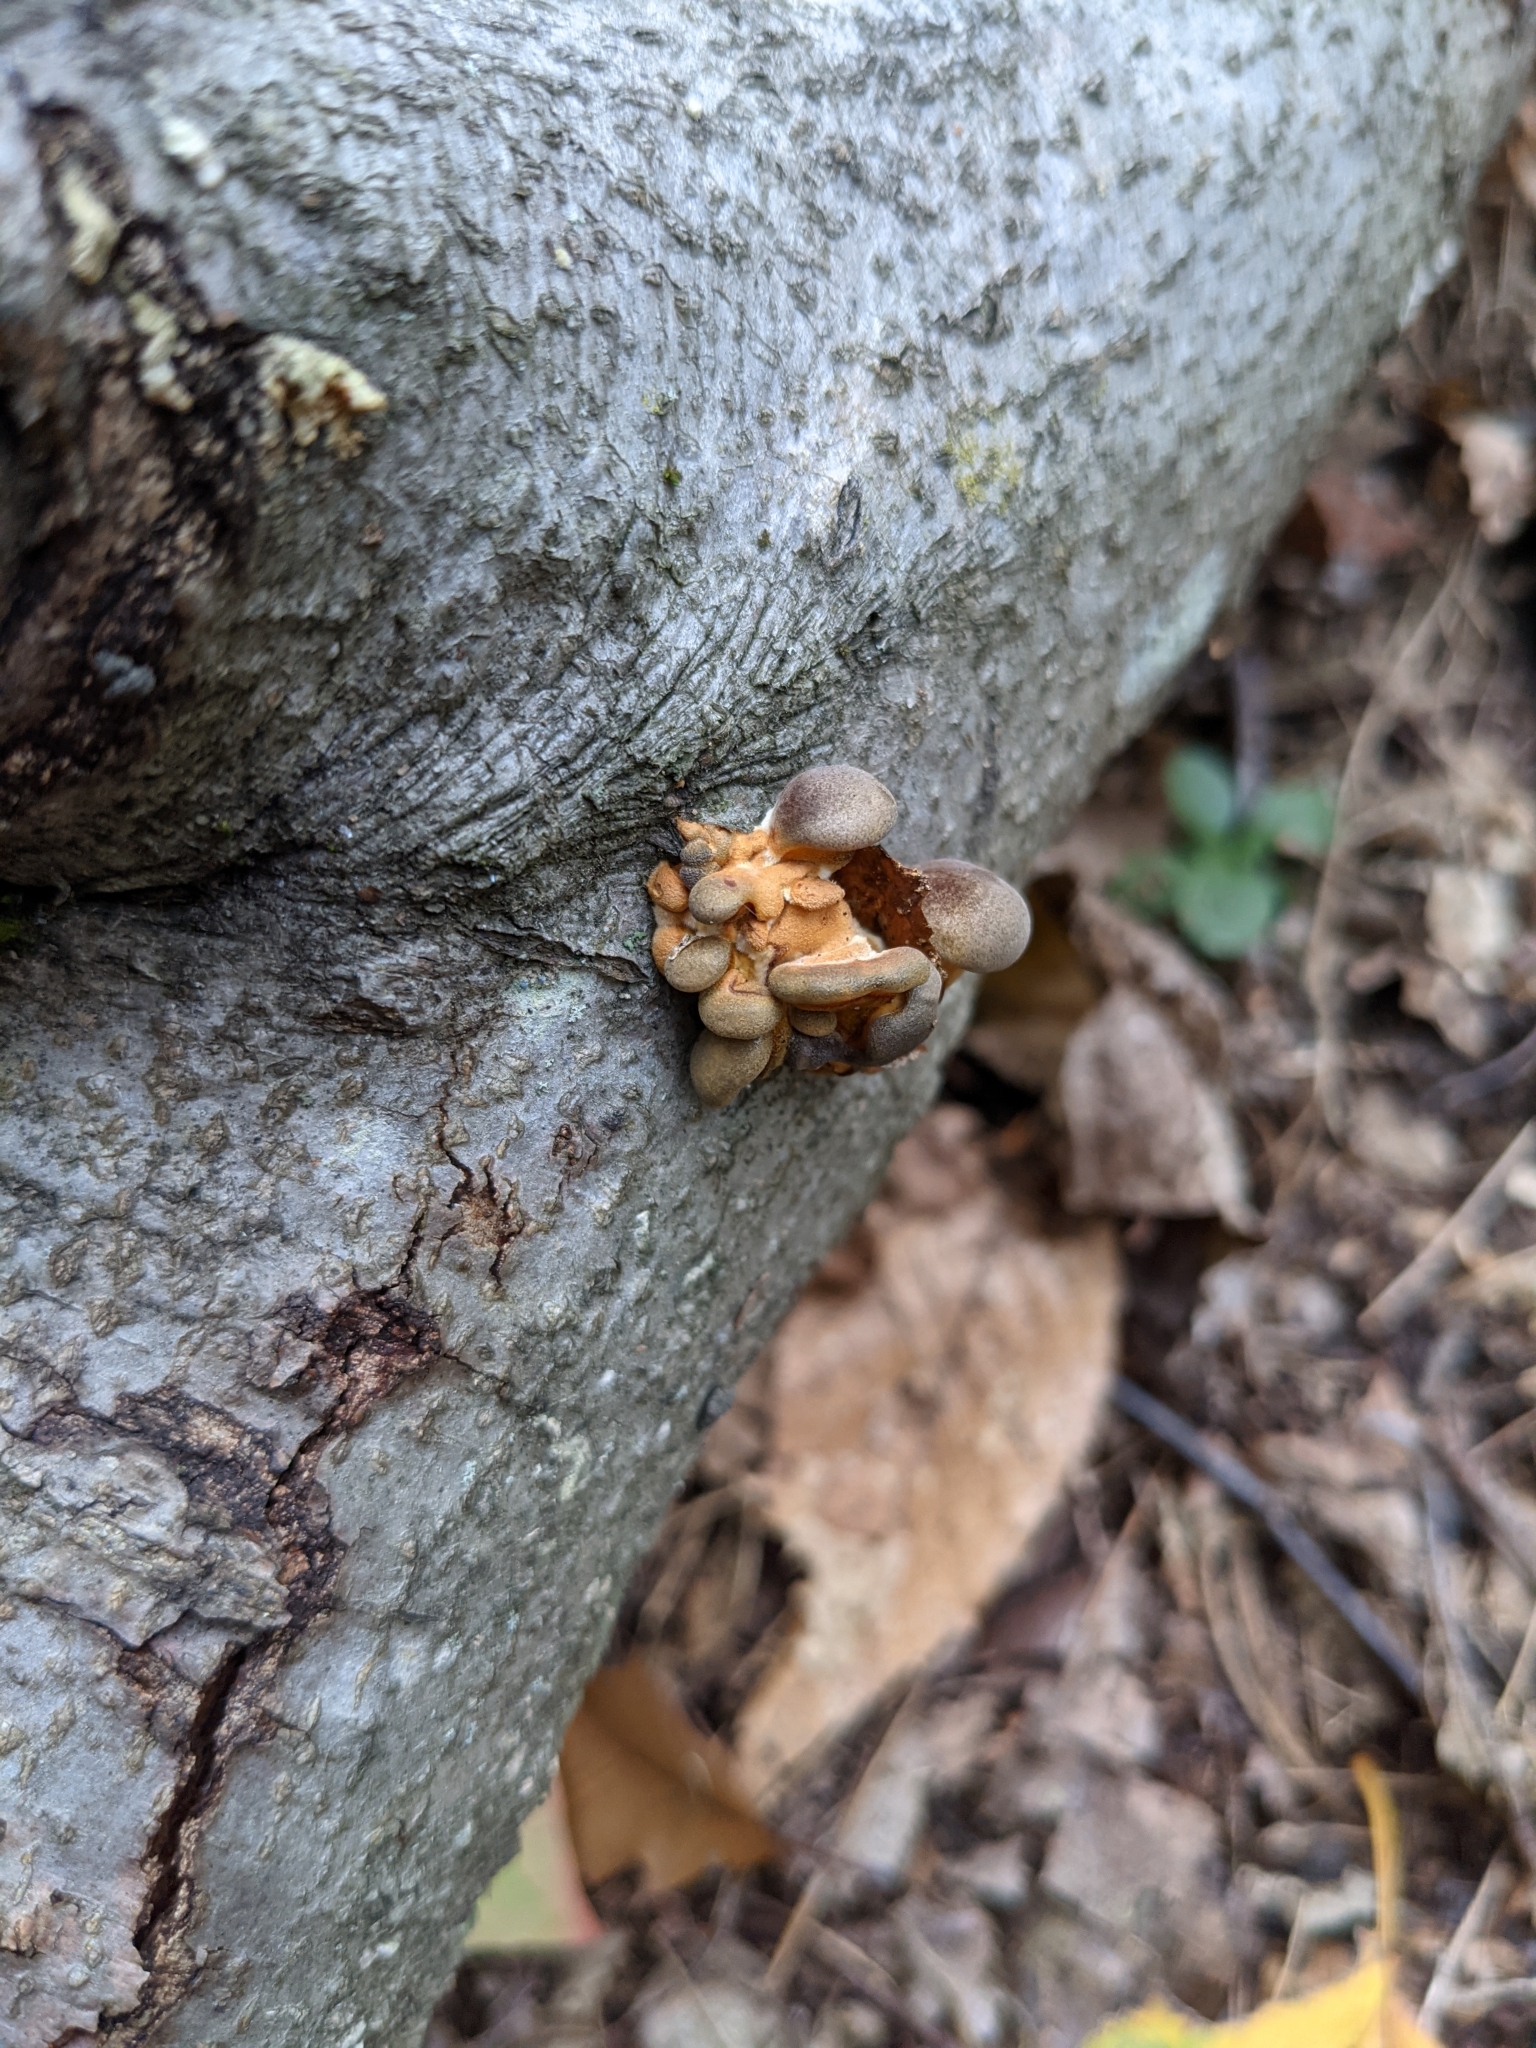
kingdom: Fungi
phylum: Basidiomycota
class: Agaricomycetes
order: Agaricales
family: Sarcomyxaceae
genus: Sarcomyxa
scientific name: Sarcomyxa serotina
